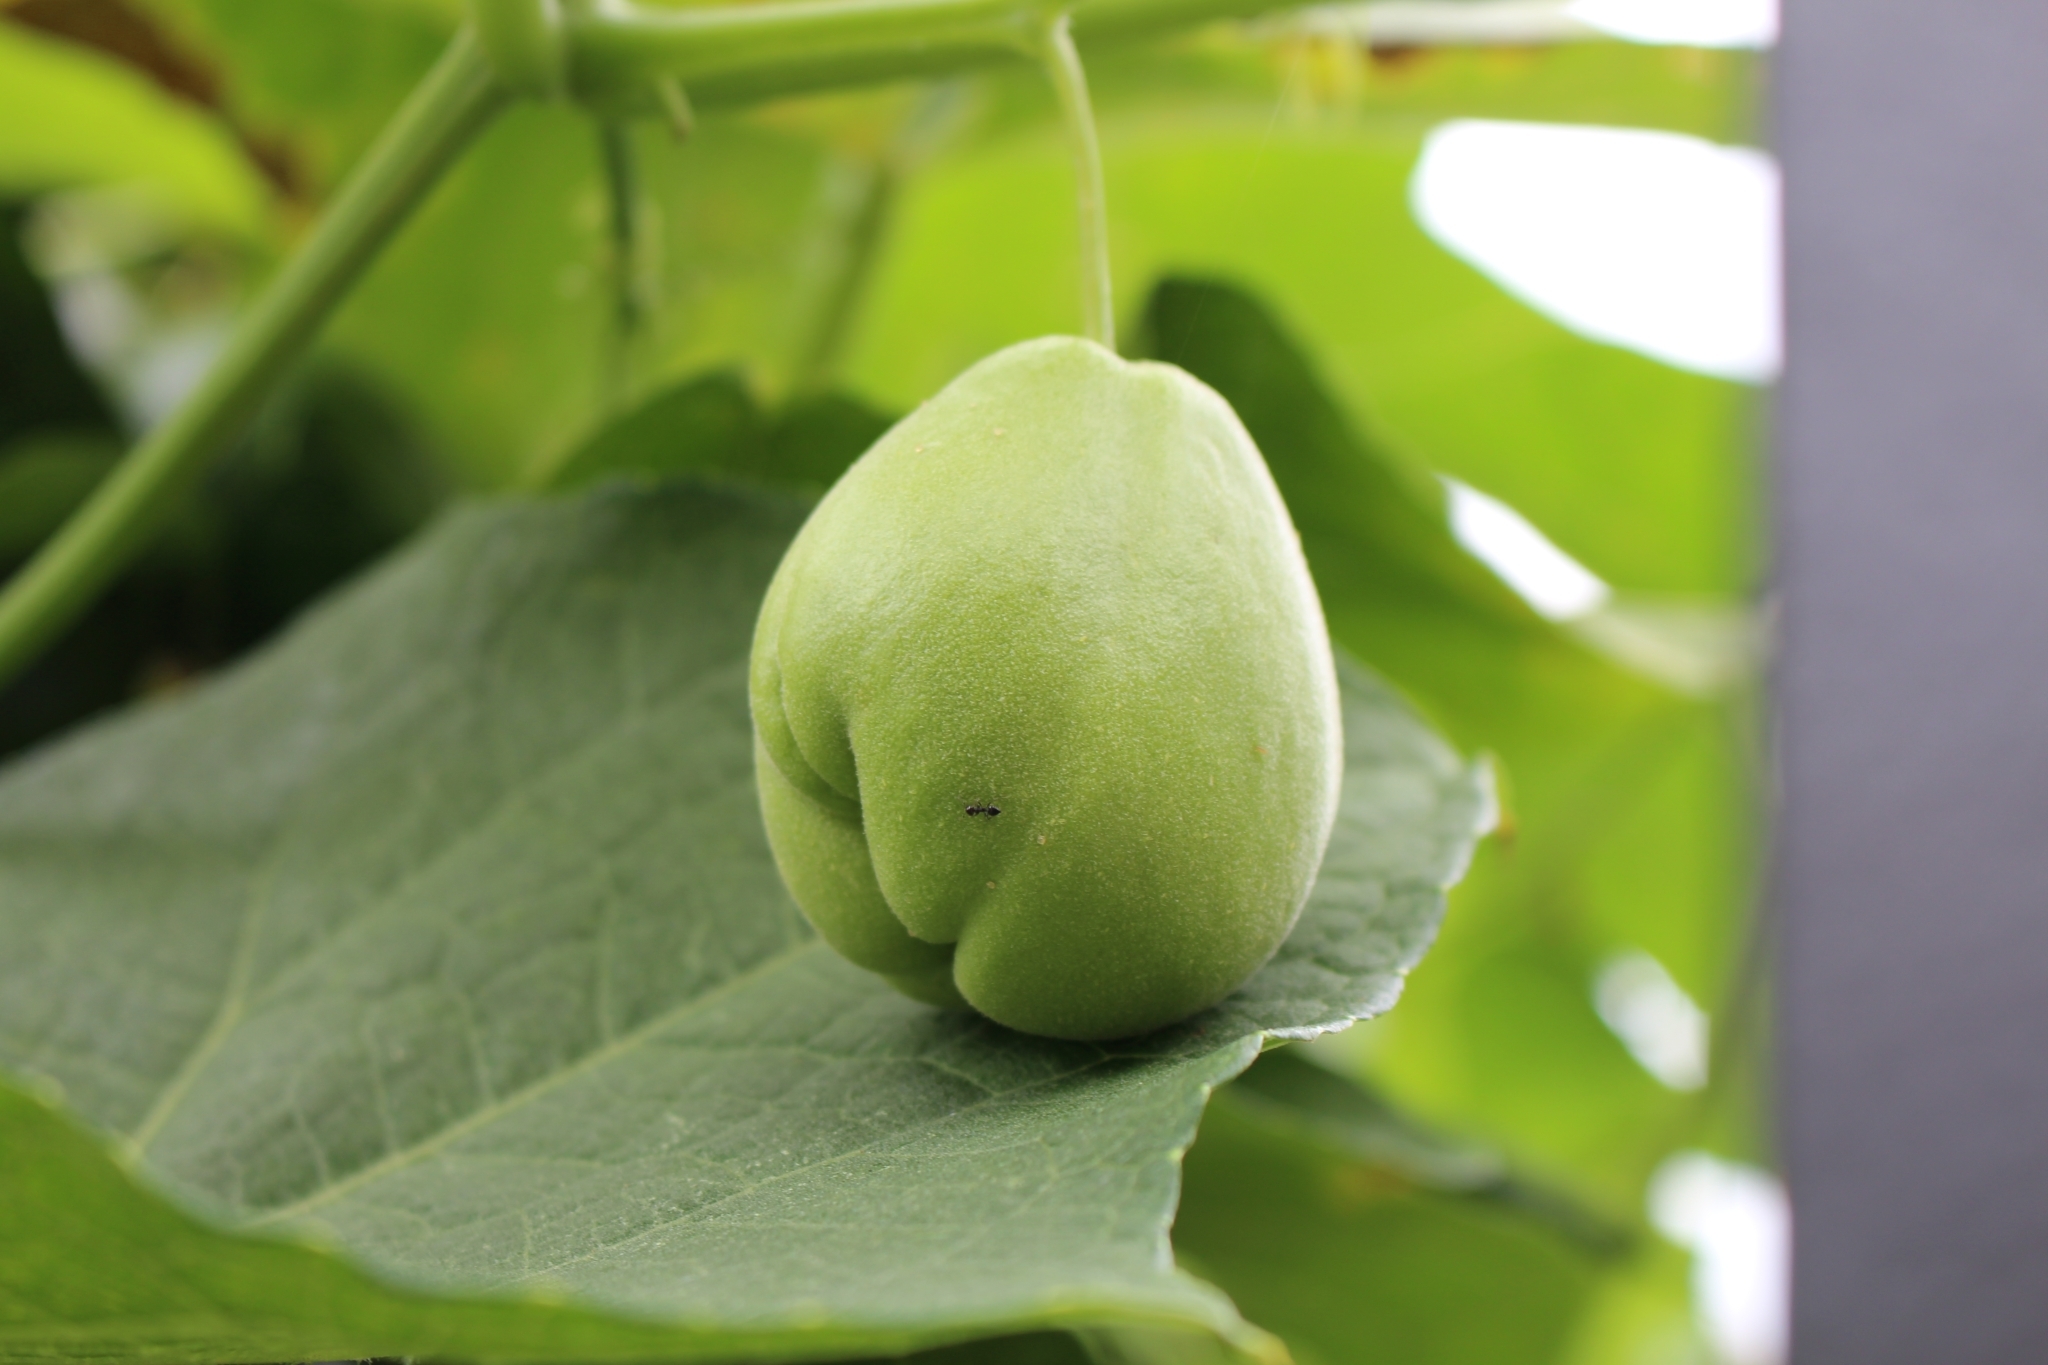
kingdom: Plantae
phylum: Tracheophyta
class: Magnoliopsida
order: Cucurbitales
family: Cucurbitaceae
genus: Sechium
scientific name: Sechium edule
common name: Chayote
